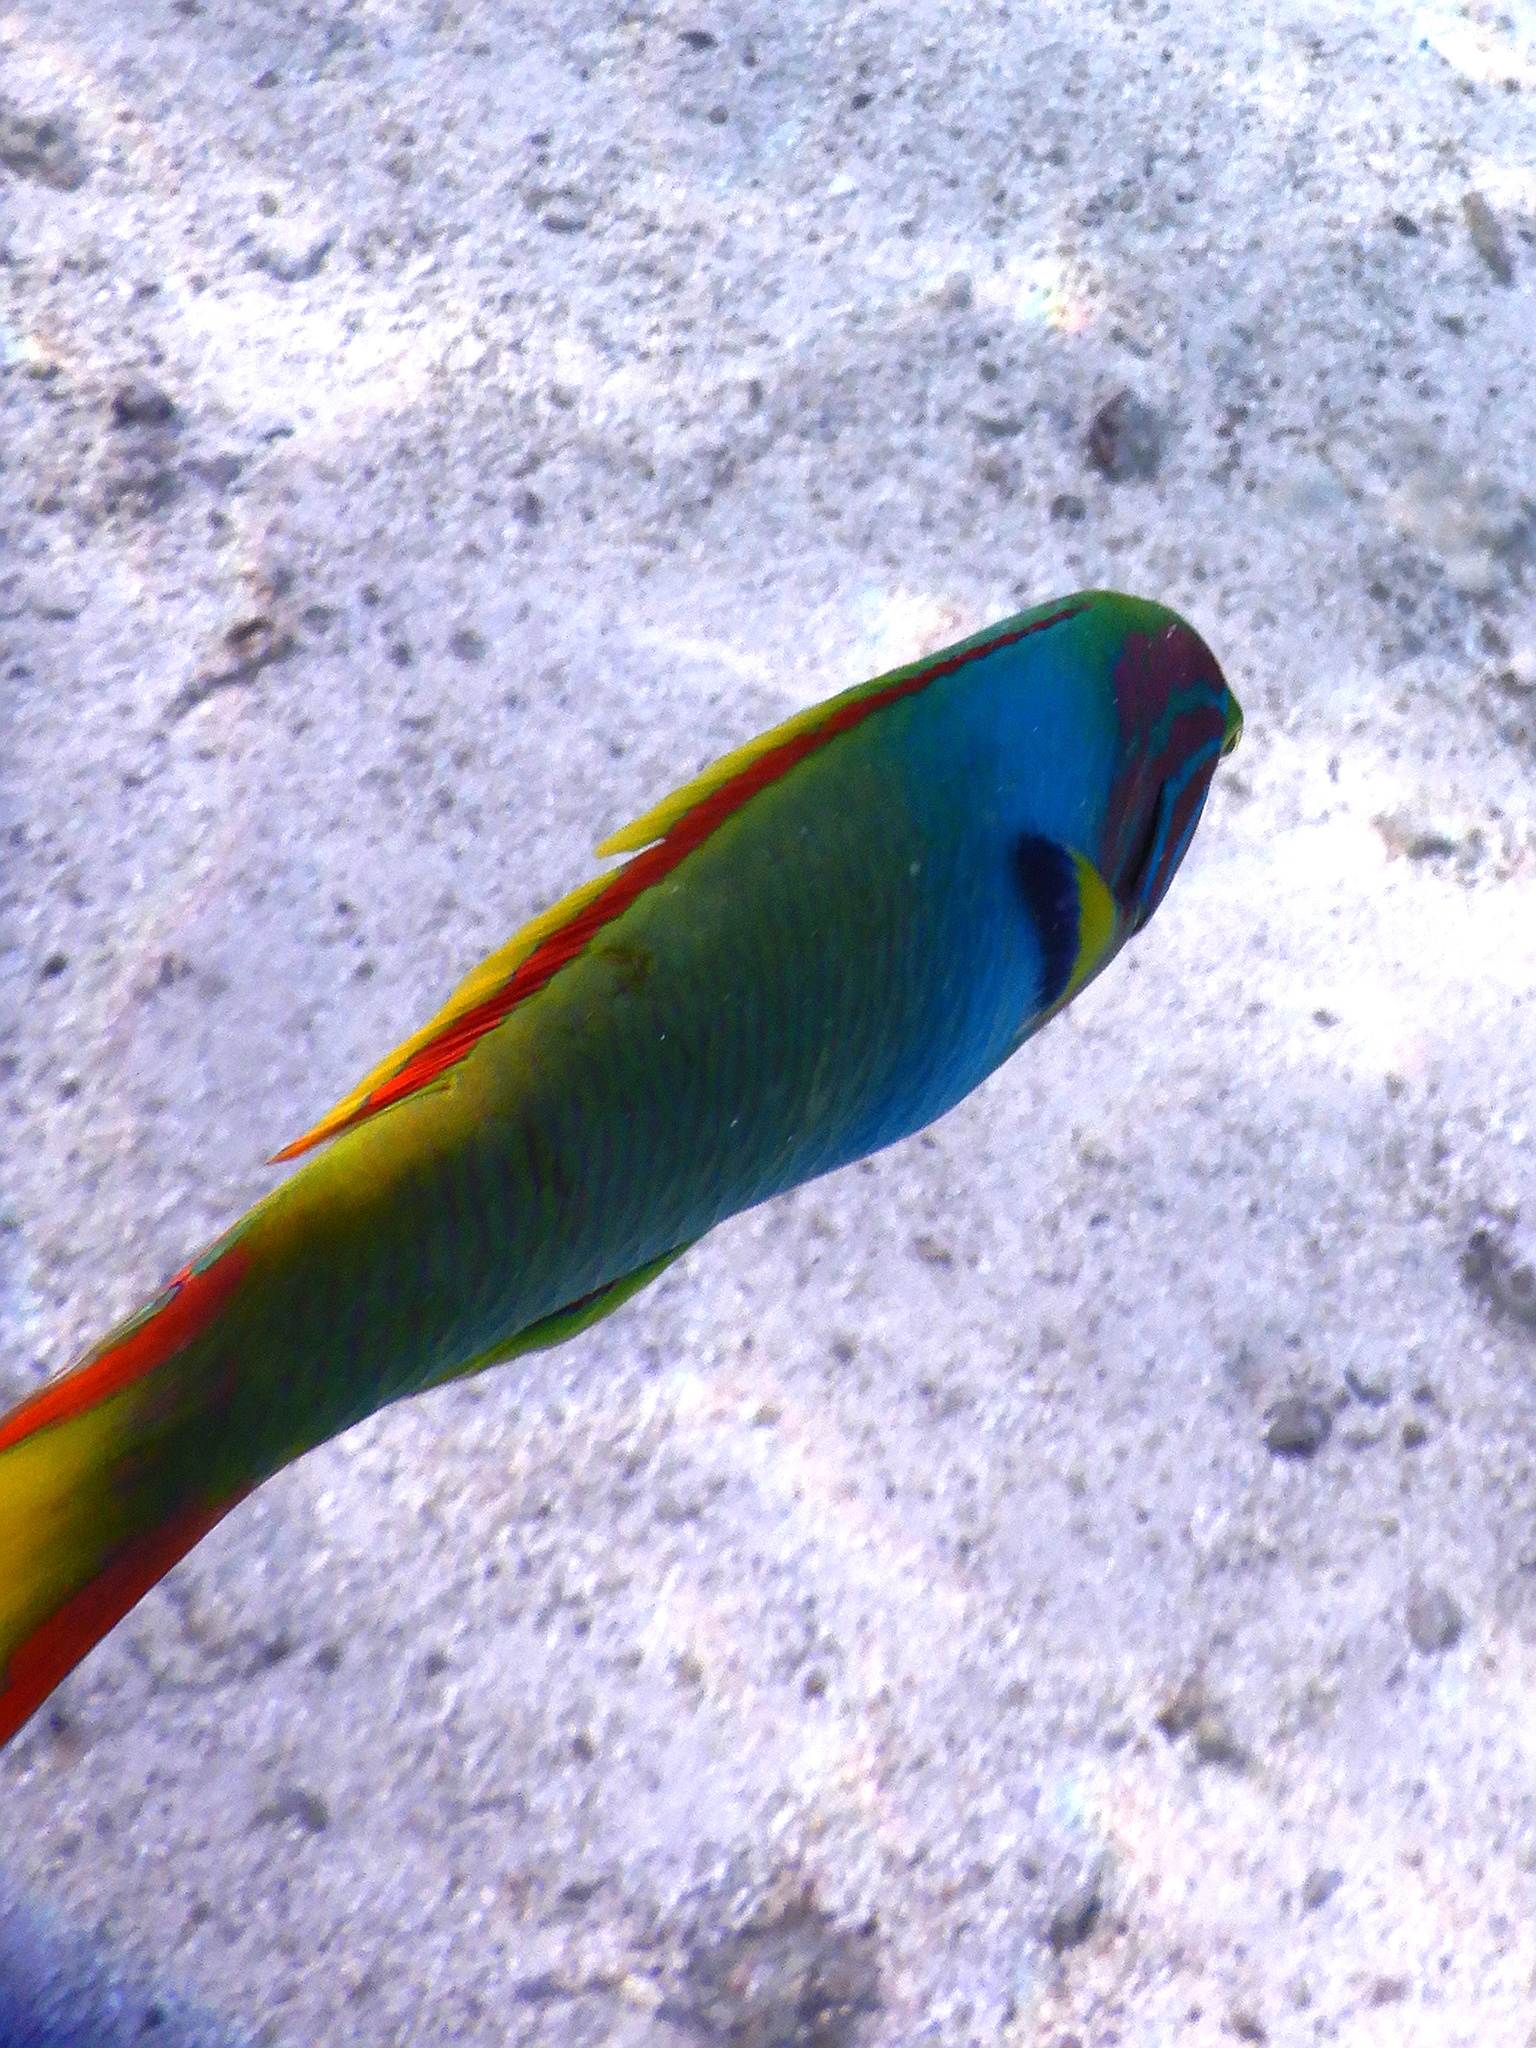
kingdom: Animalia
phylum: Chordata
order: Perciformes
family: Labridae
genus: Thalassoma
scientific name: Thalassoma lutescens
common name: Green moon wrasse
